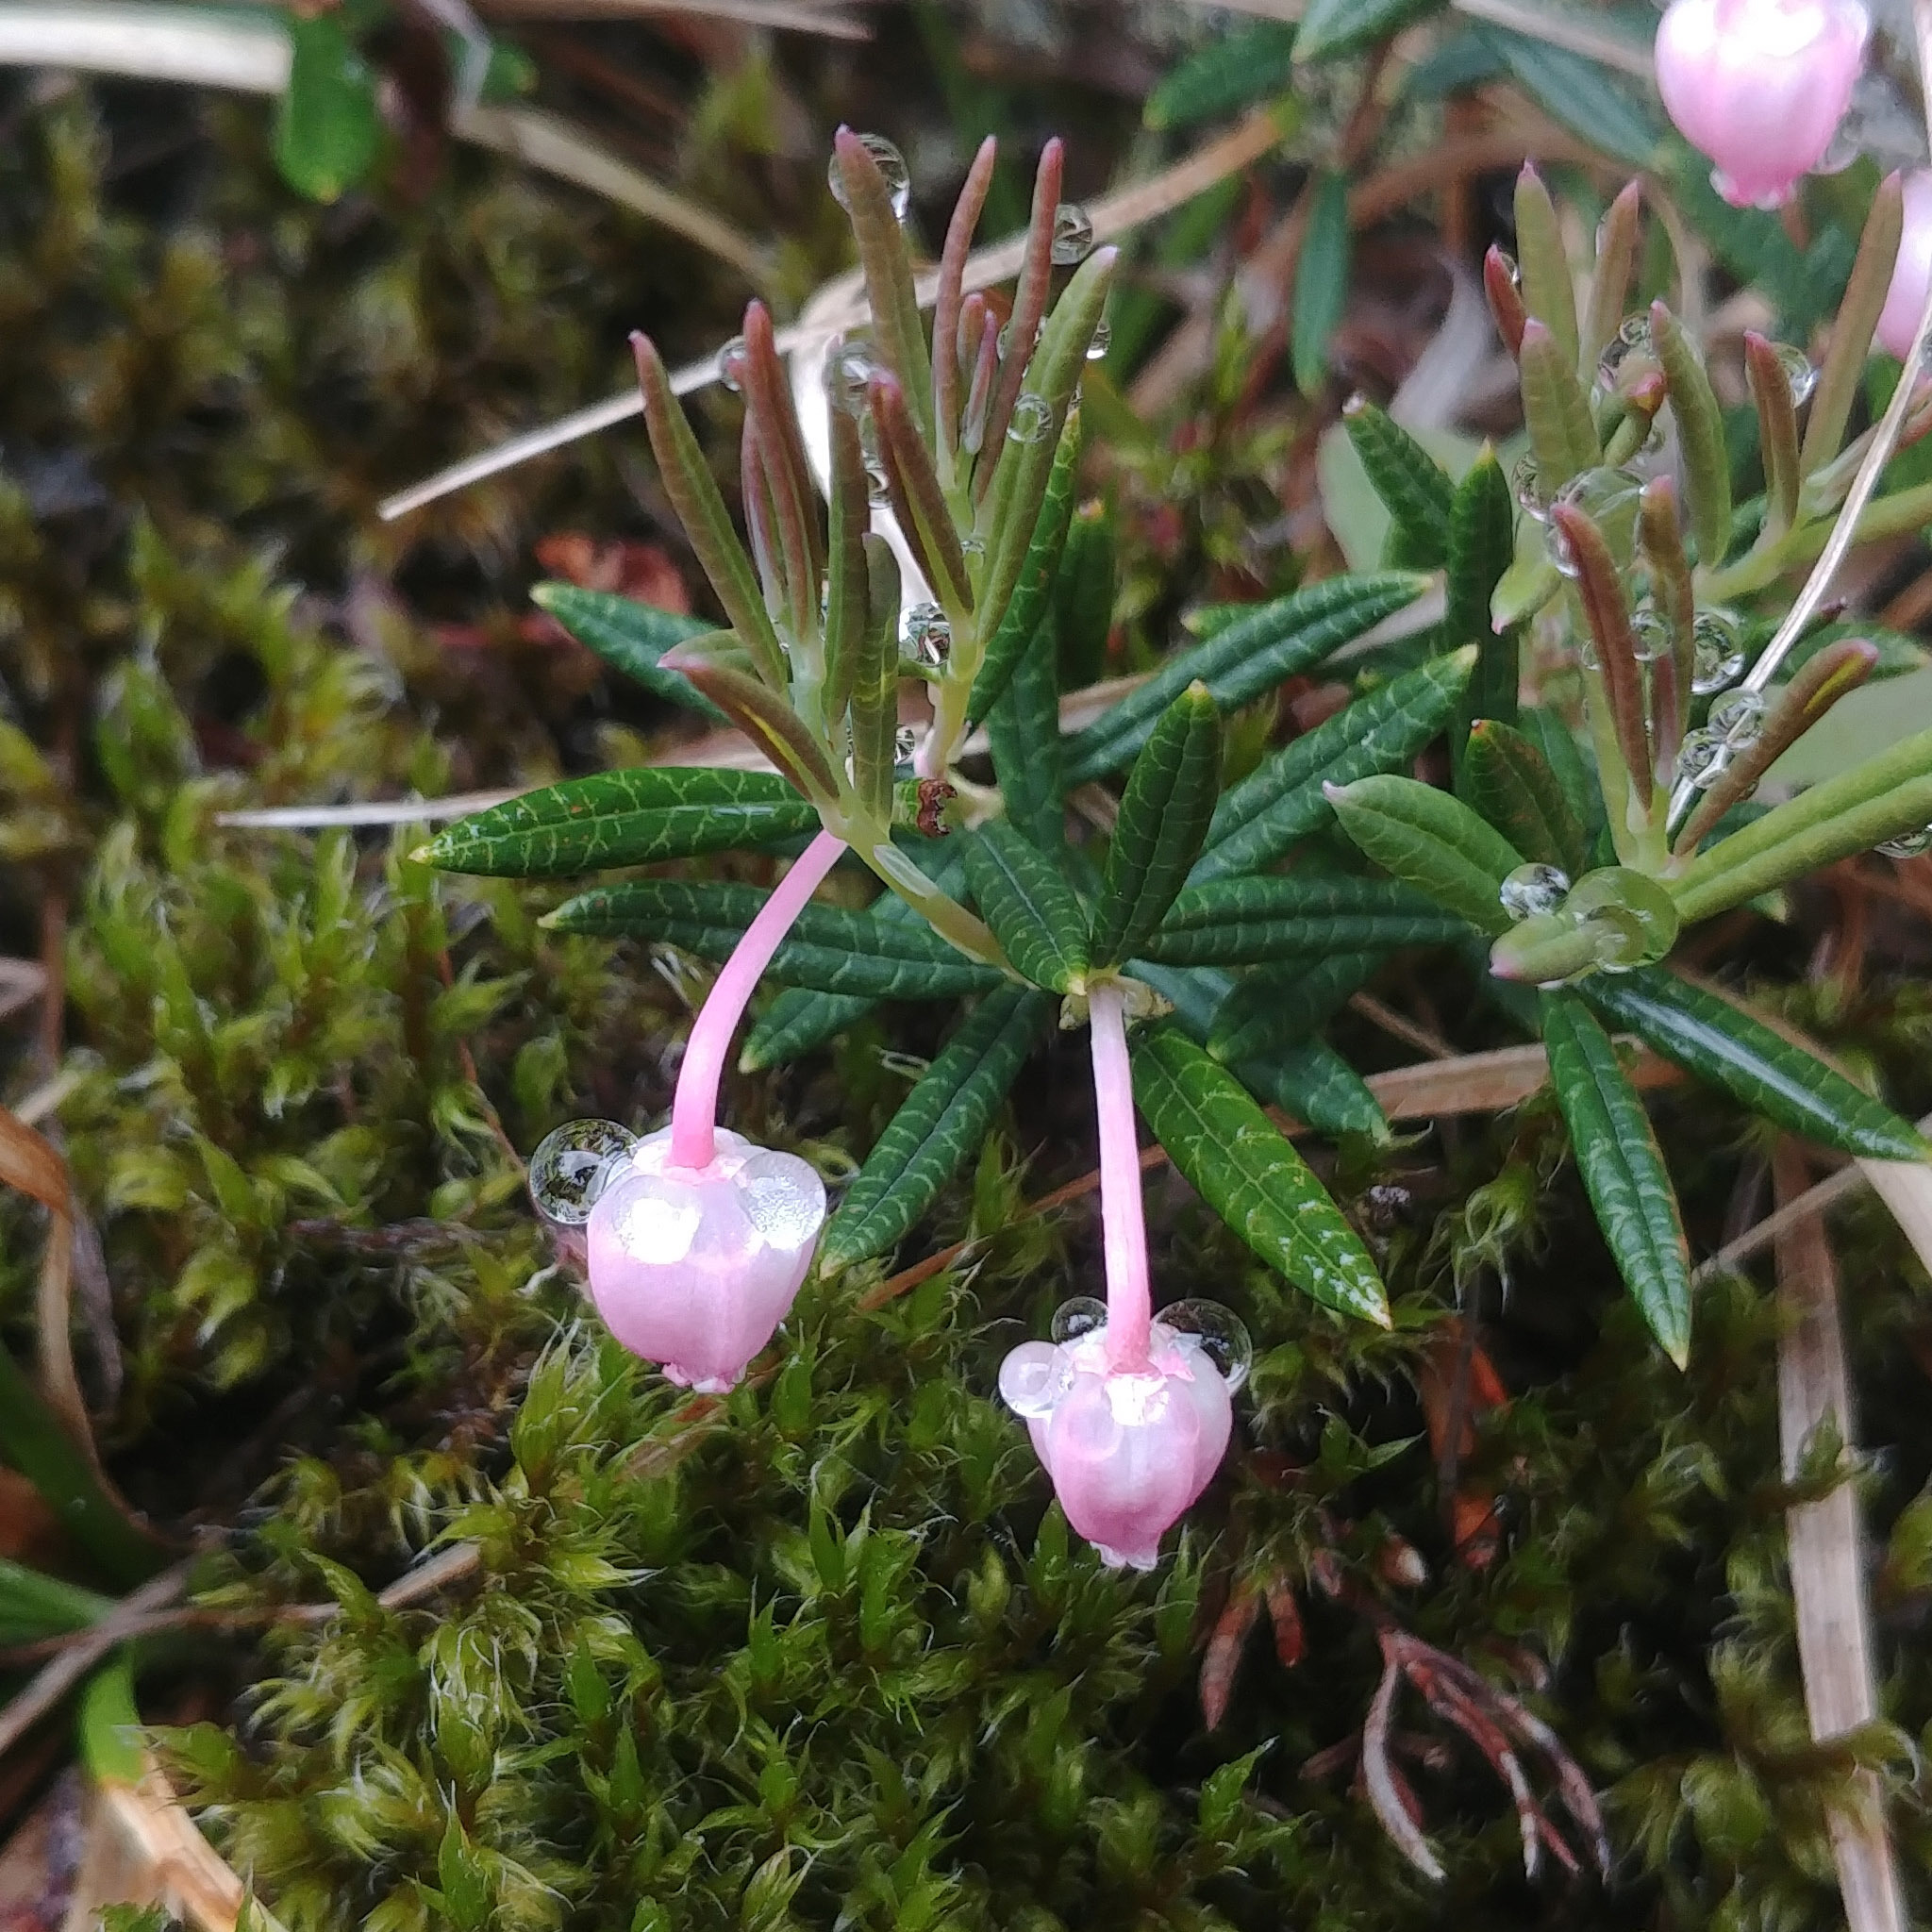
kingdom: Plantae
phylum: Tracheophyta
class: Magnoliopsida
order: Ericales
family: Ericaceae
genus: Andromeda
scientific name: Andromeda polifolia
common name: Bog-rosemary
